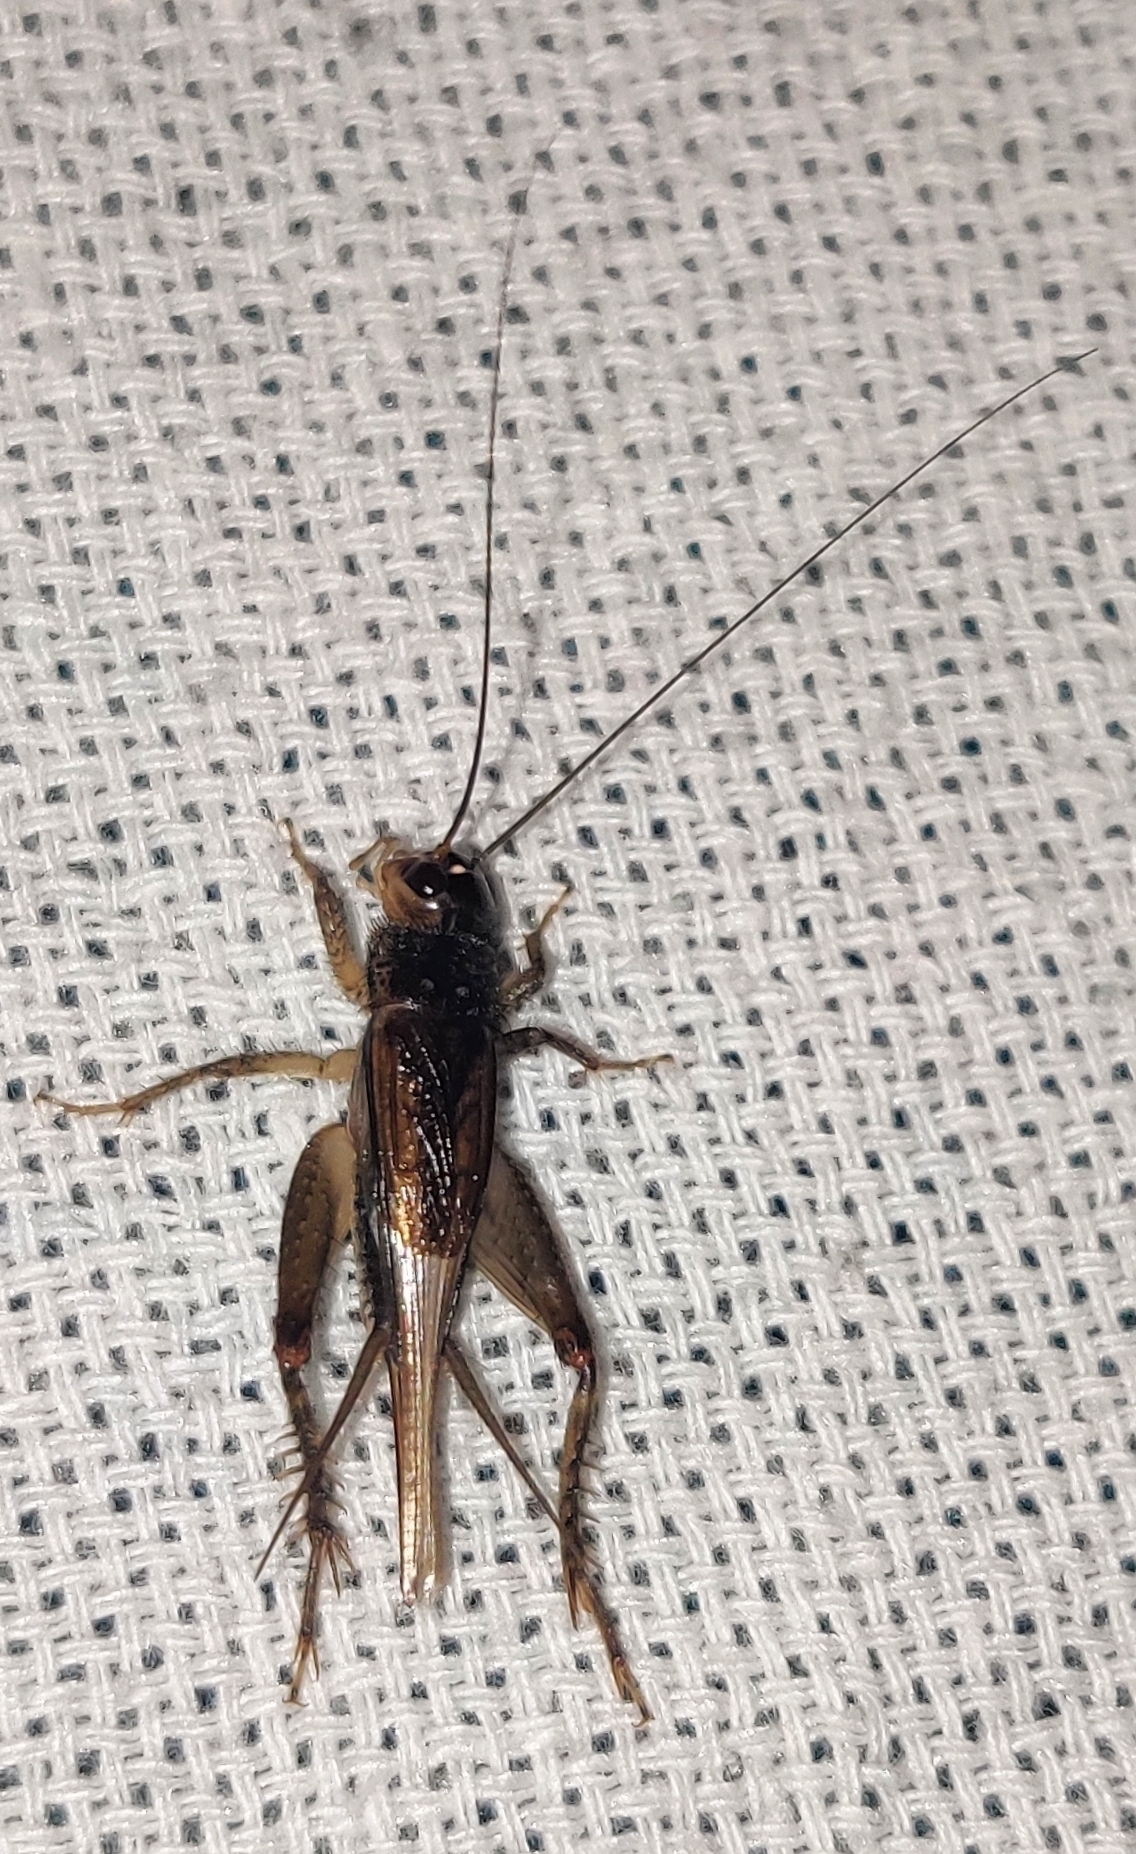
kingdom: Animalia
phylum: Arthropoda
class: Insecta
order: Orthoptera
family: Gryllidae
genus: Modicogryllus
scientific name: Modicogryllus consobrinus
